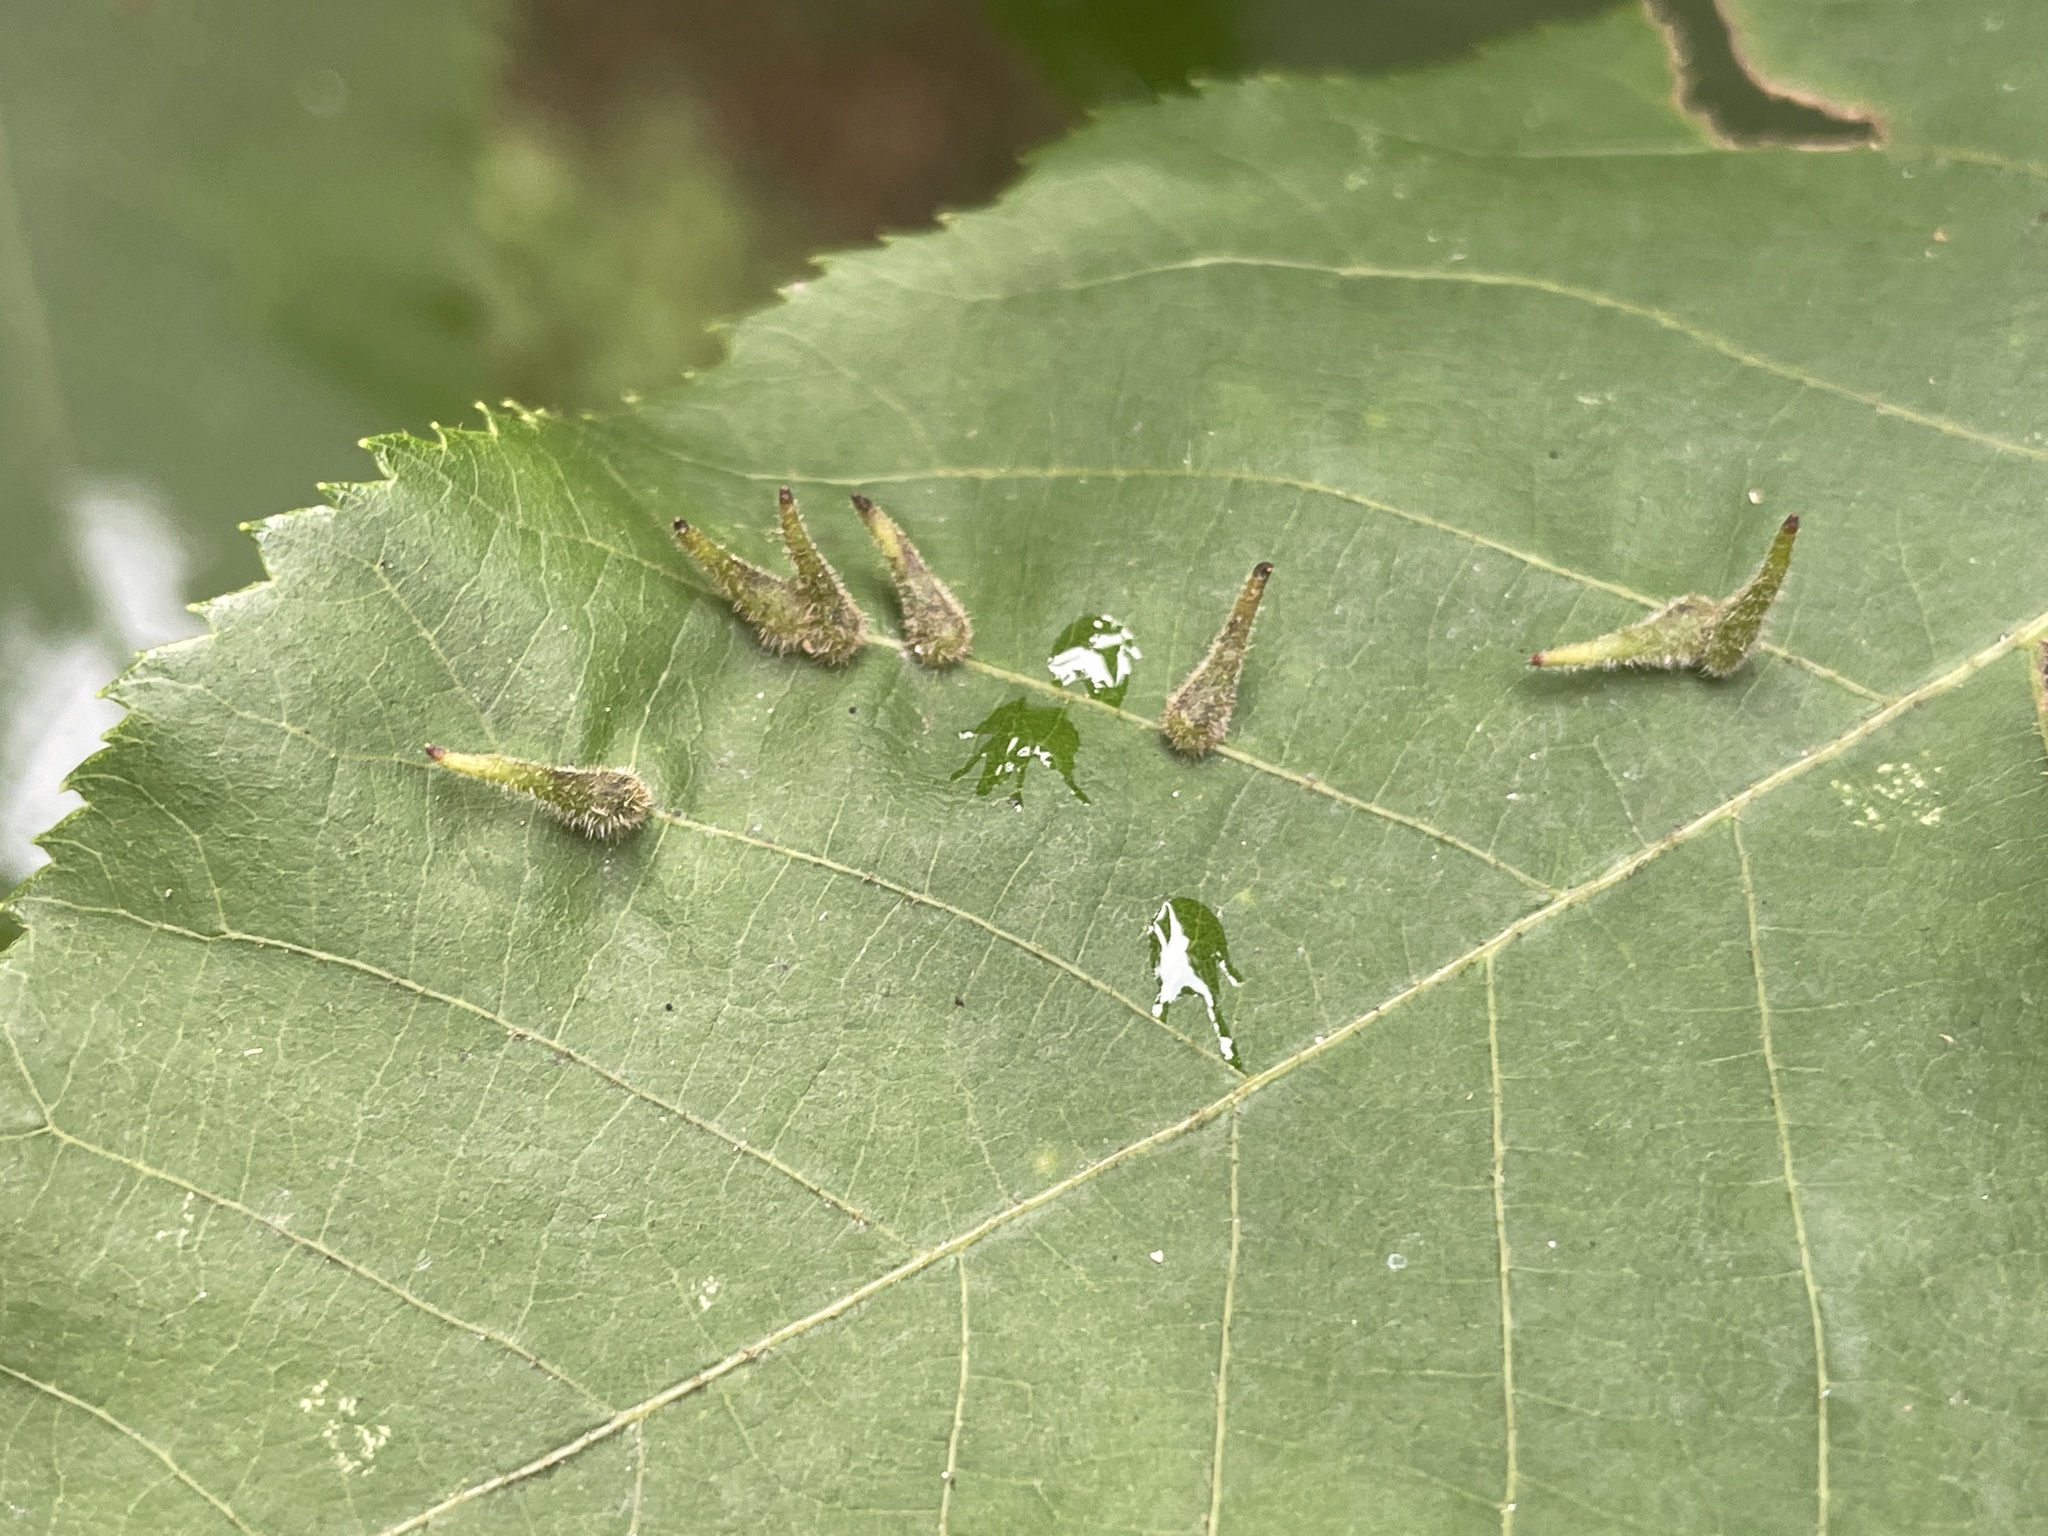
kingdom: Animalia
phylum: Arthropoda
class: Insecta
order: Diptera
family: Cecidomyiidae
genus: Caryomyia
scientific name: Caryomyia spinulosa
